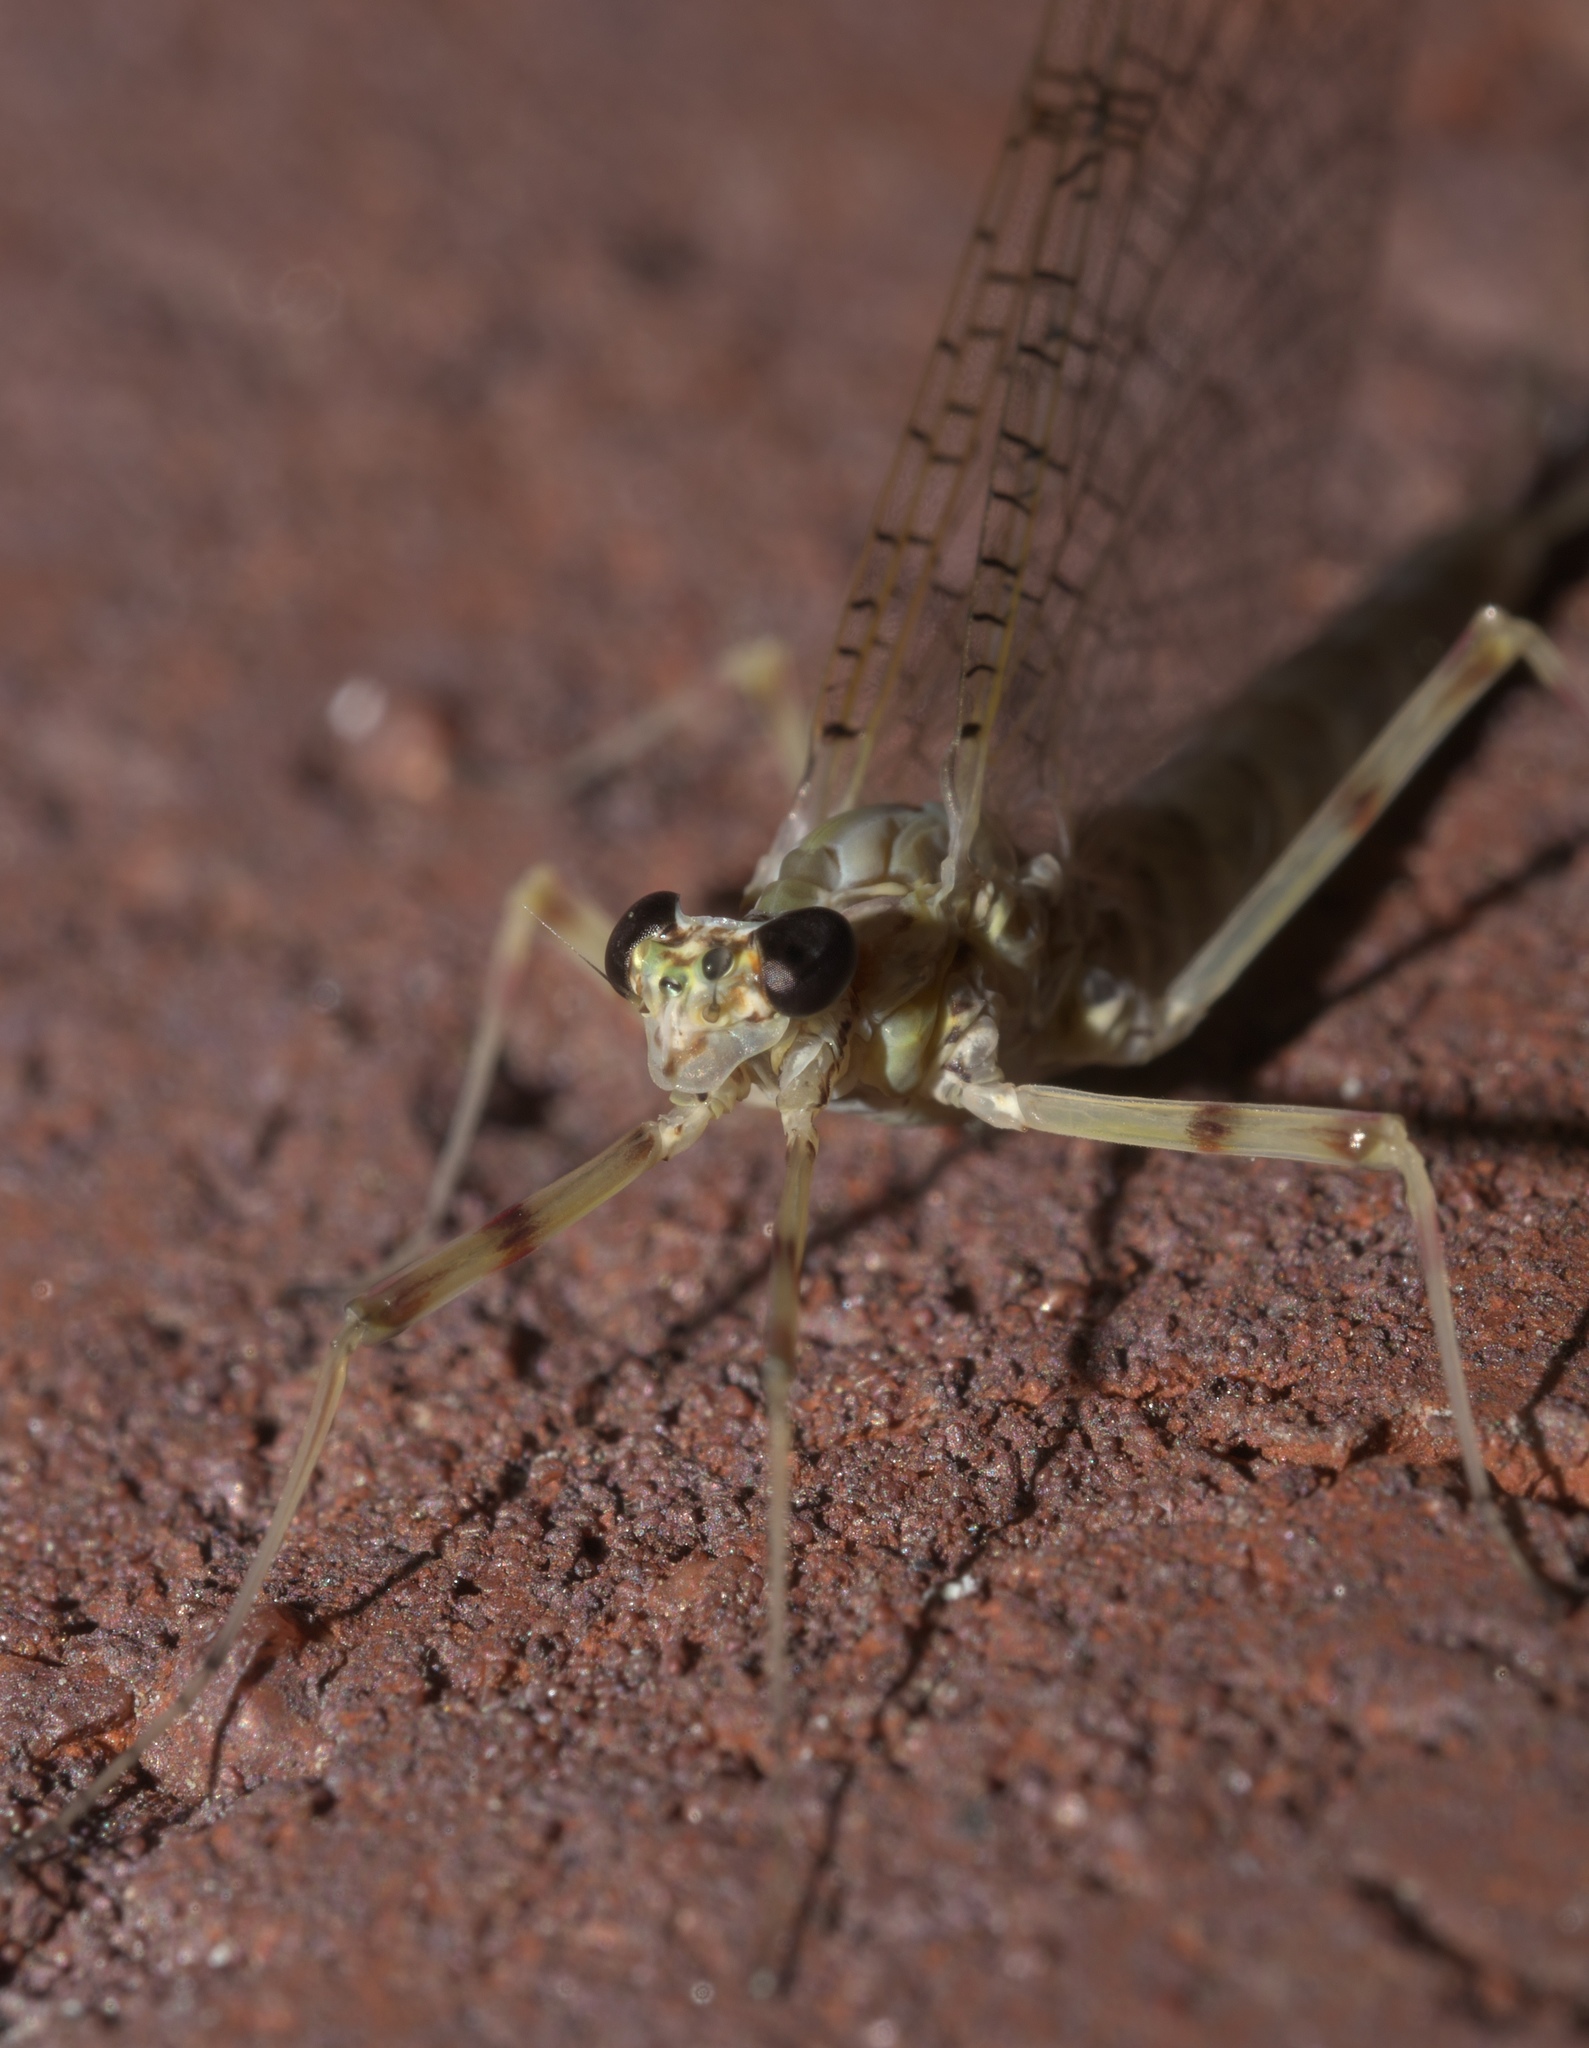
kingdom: Animalia
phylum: Arthropoda
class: Insecta
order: Ephemeroptera
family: Heptageniidae
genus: Stenonema
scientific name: Stenonema femoratum
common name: Dark cahill
